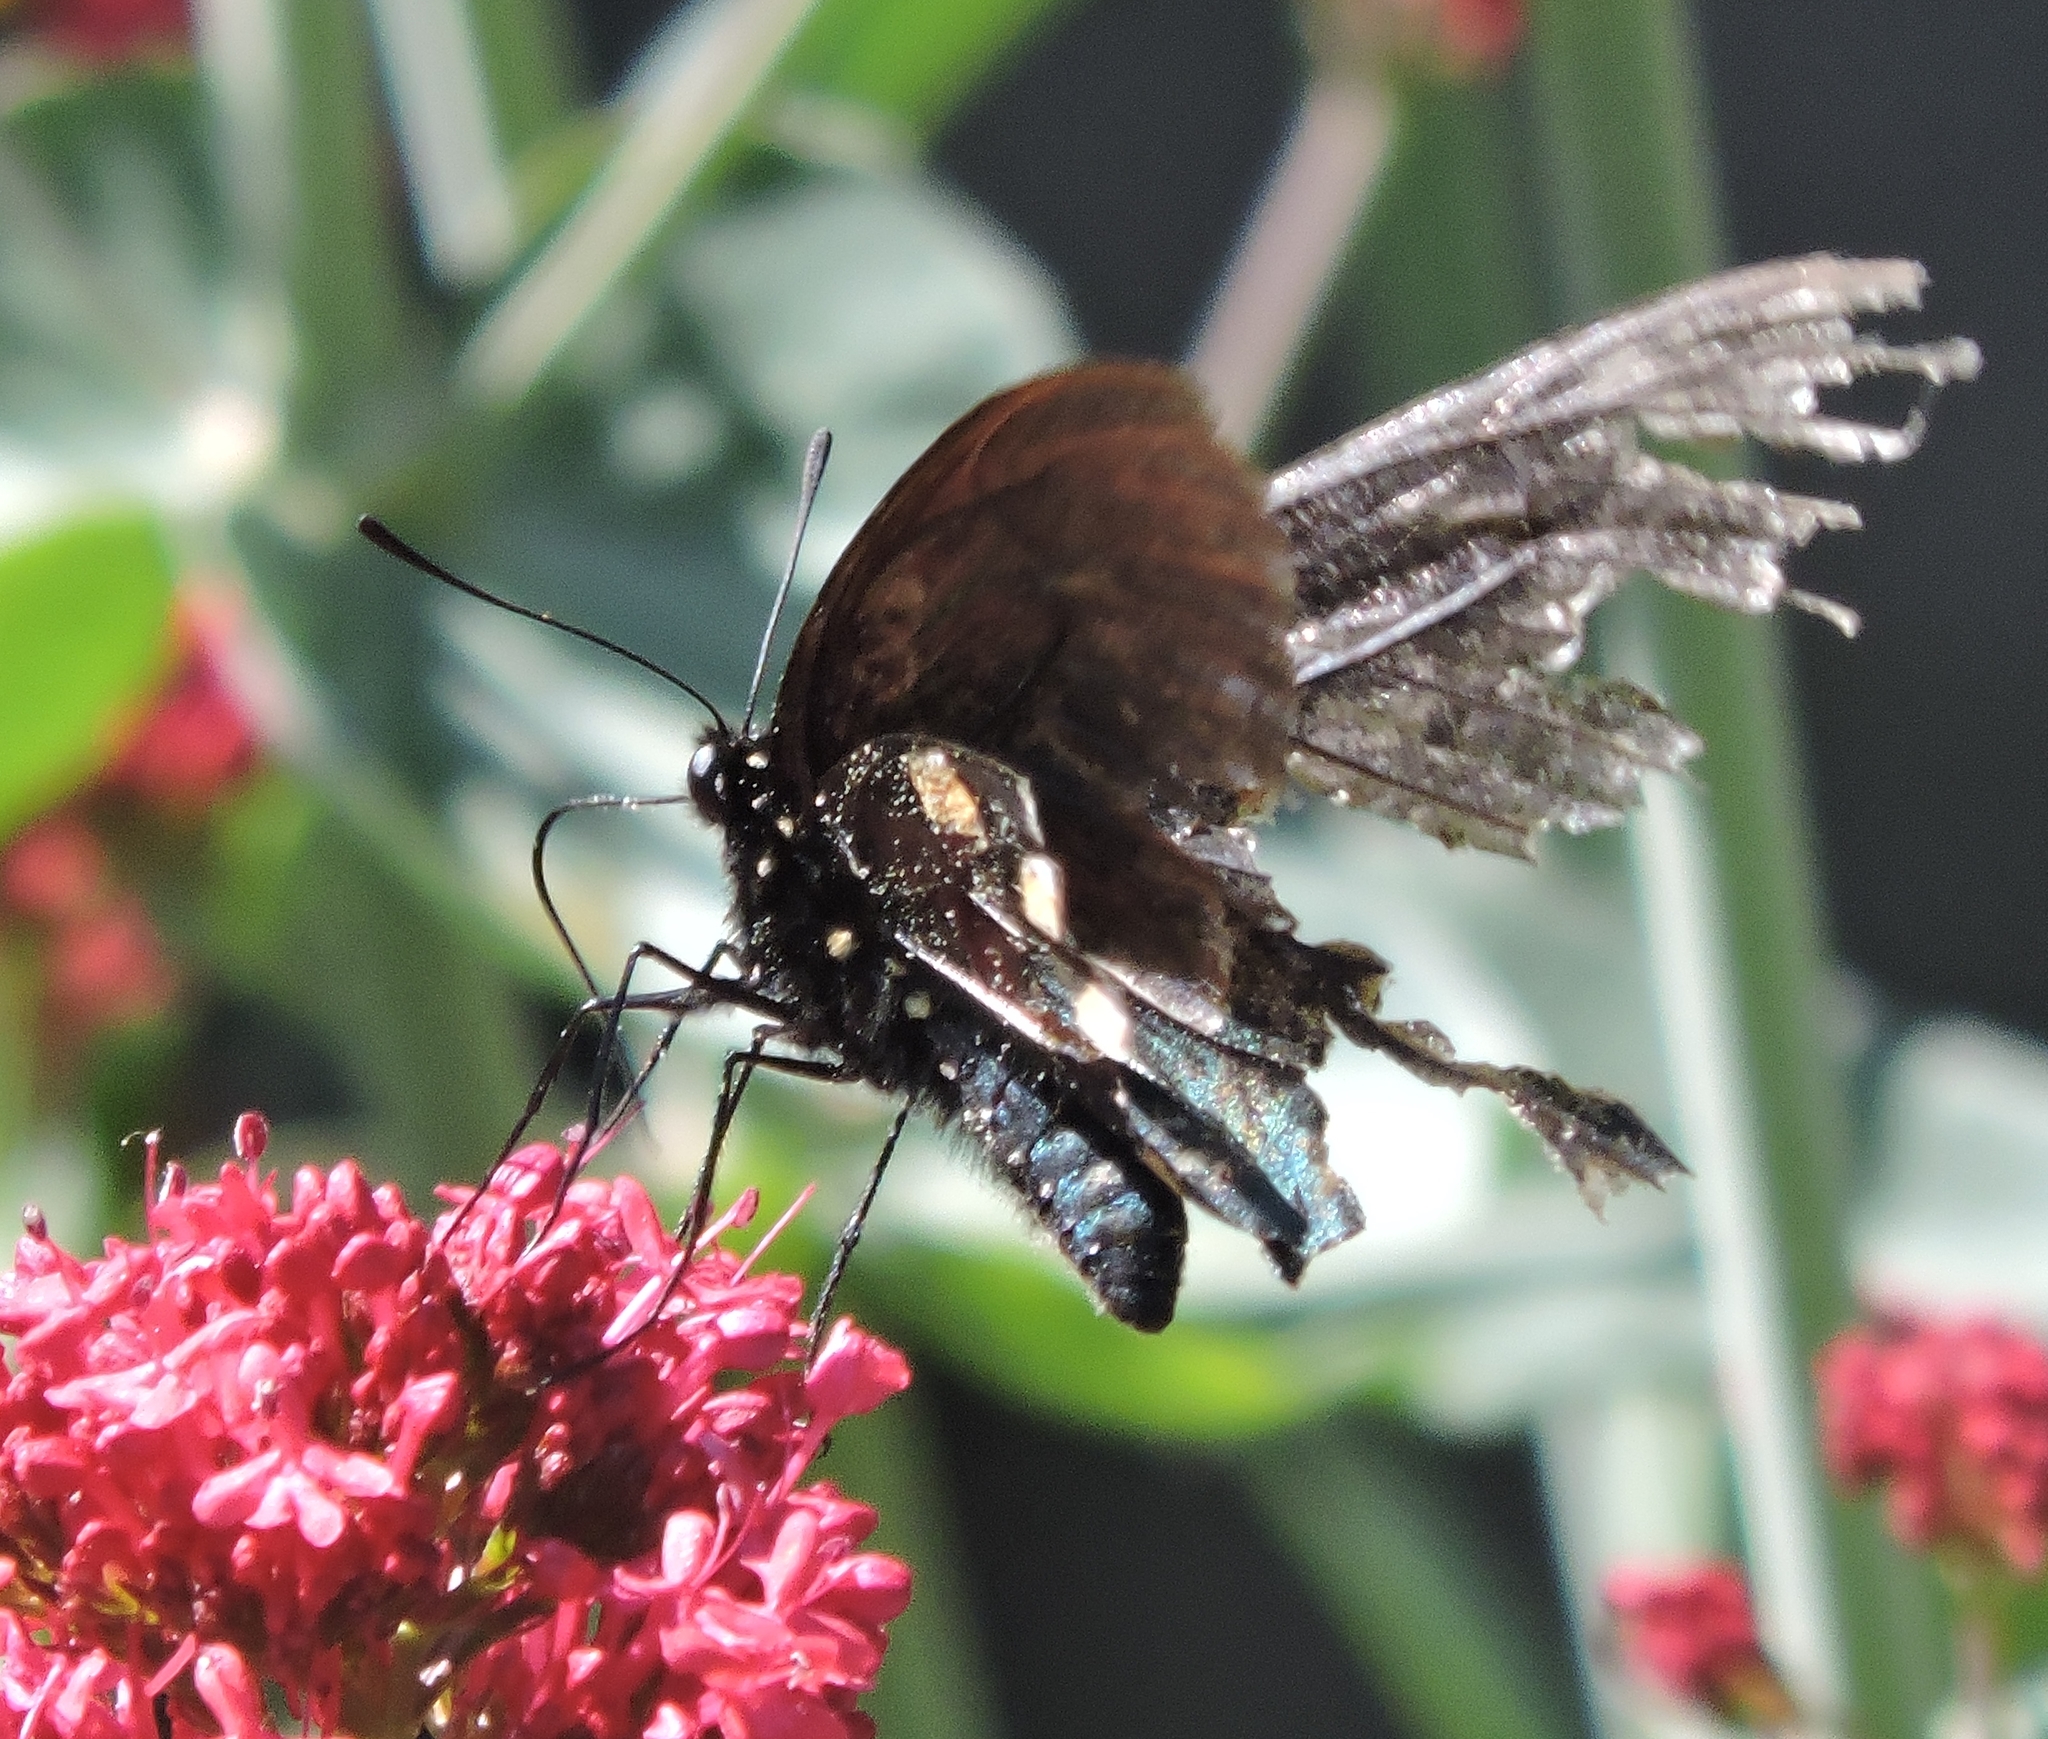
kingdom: Animalia
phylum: Arthropoda
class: Insecta
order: Lepidoptera
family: Papilionidae
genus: Battus
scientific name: Battus philenor
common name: Pipevine swallowtail
